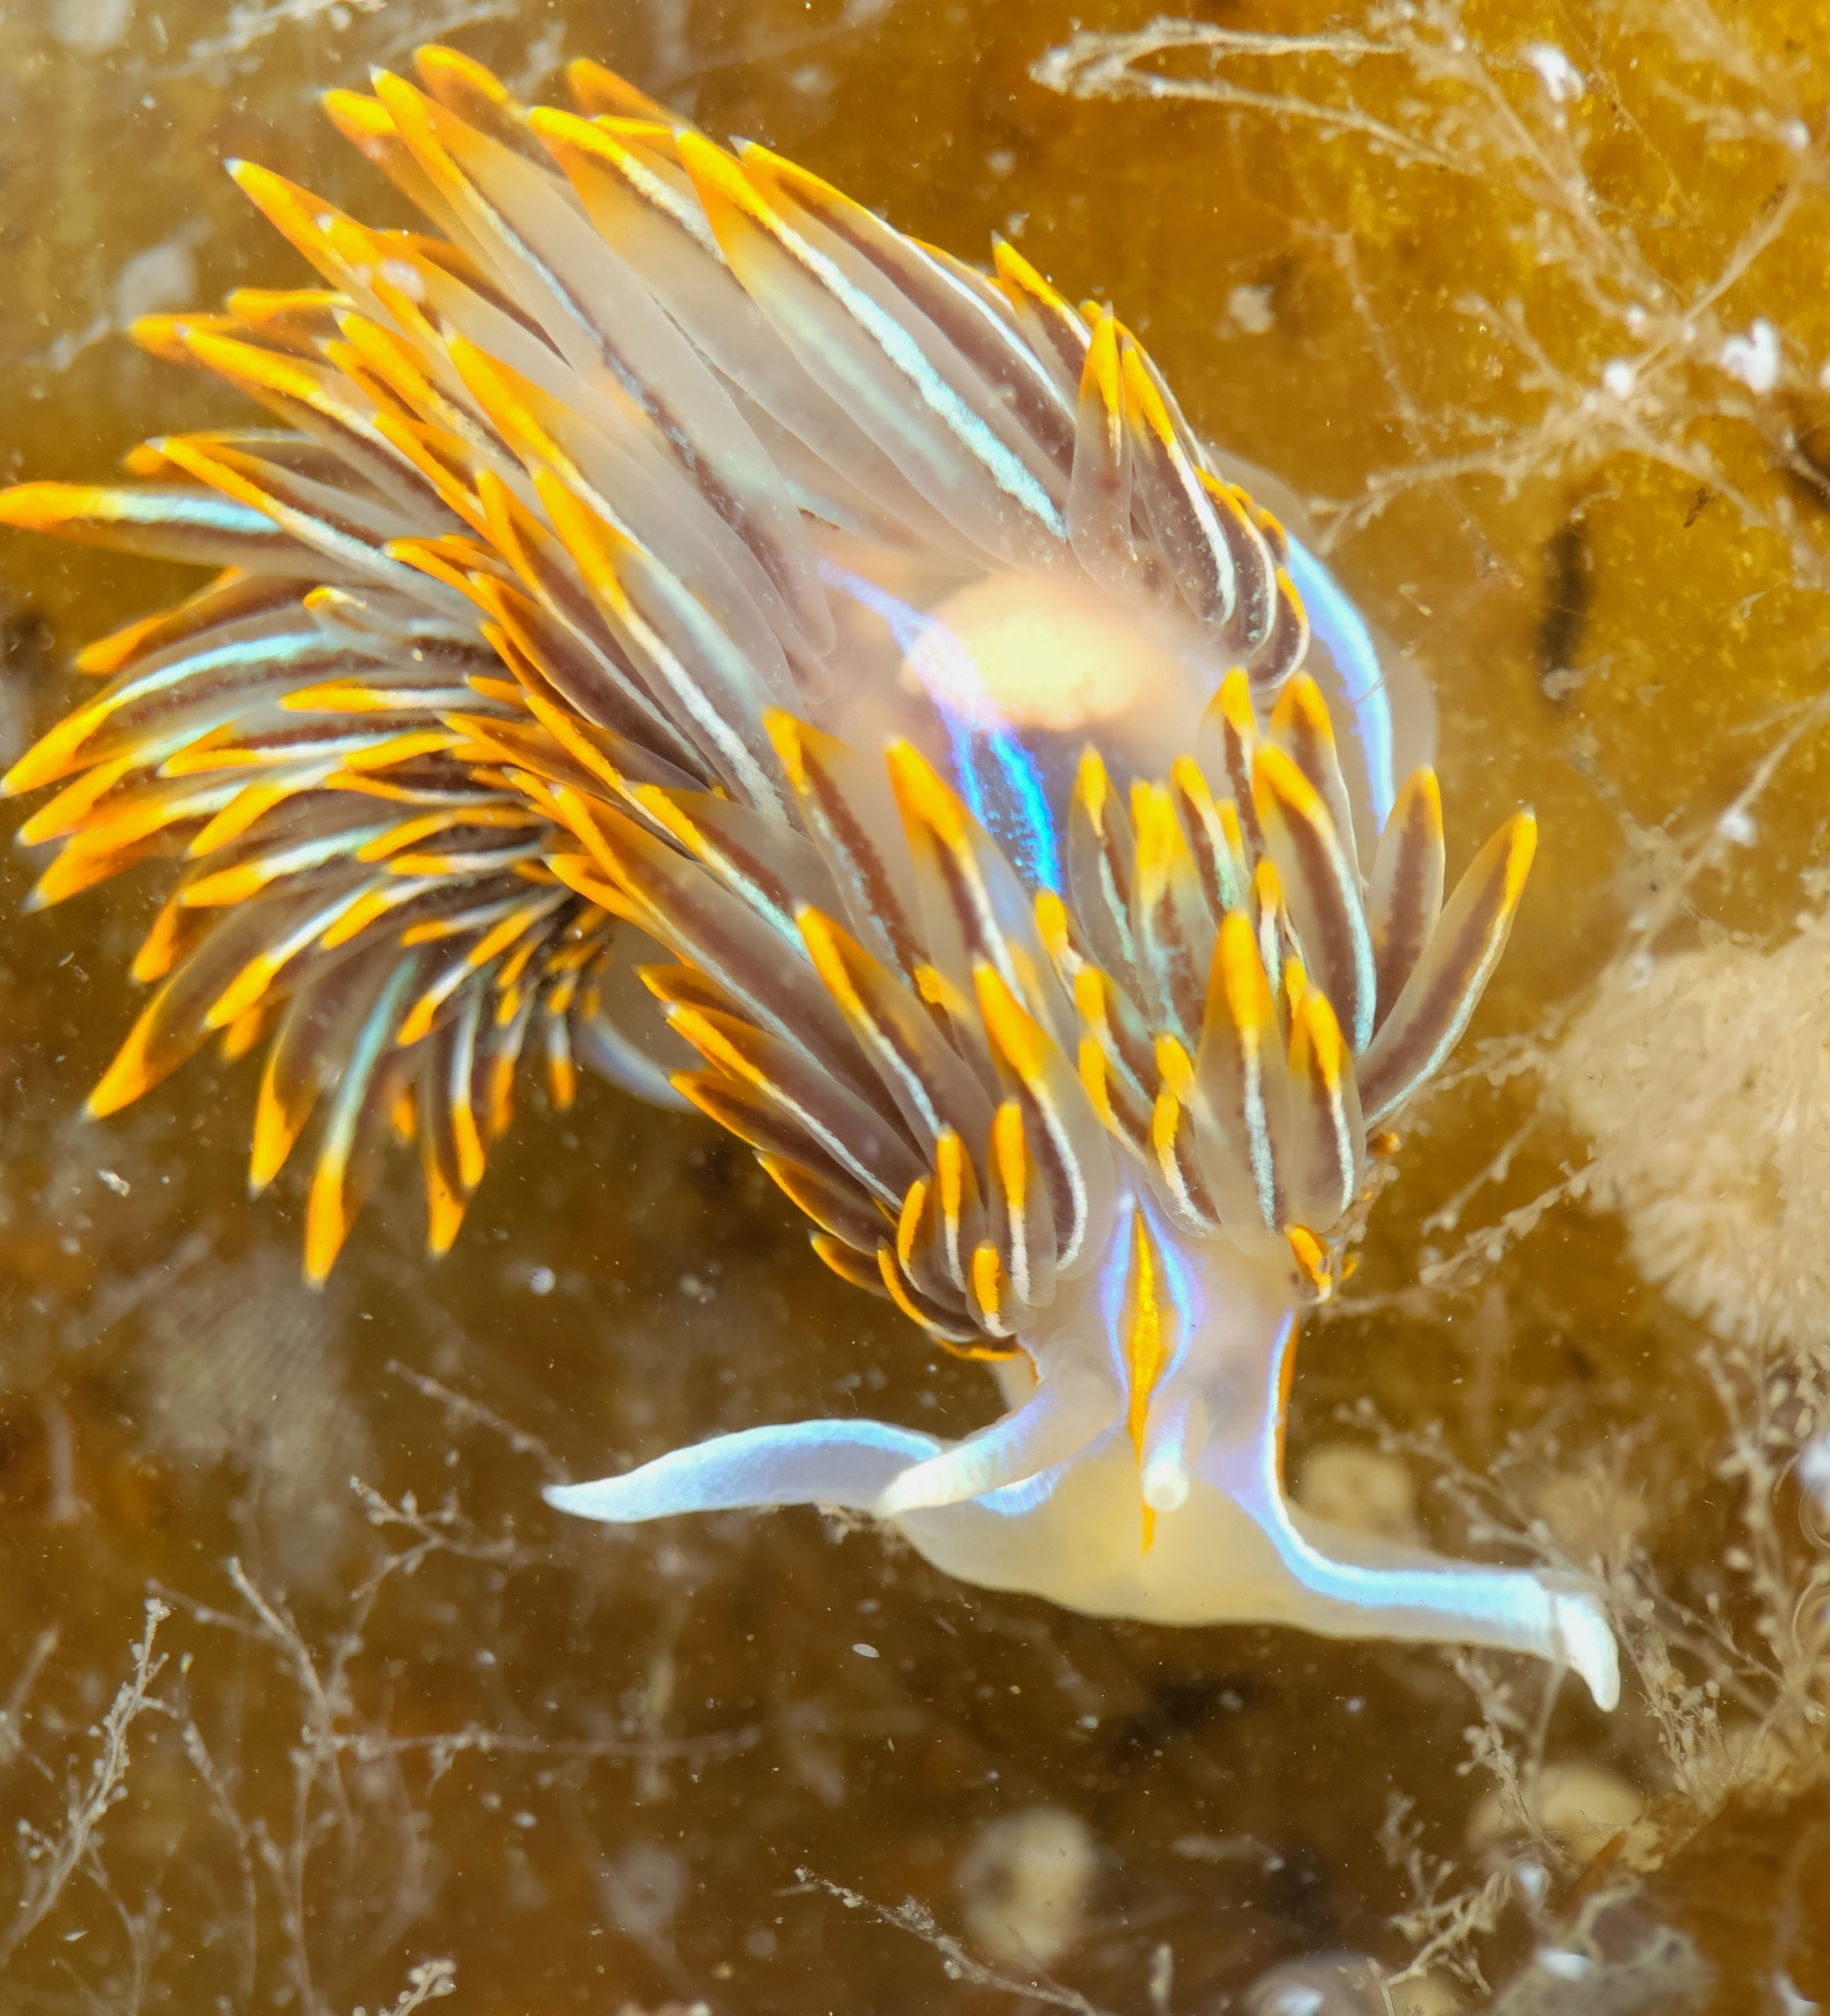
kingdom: Animalia
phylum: Mollusca
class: Gastropoda
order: Nudibranchia
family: Myrrhinidae
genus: Hermissenda
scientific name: Hermissenda crassicornis
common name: Hermissenda
